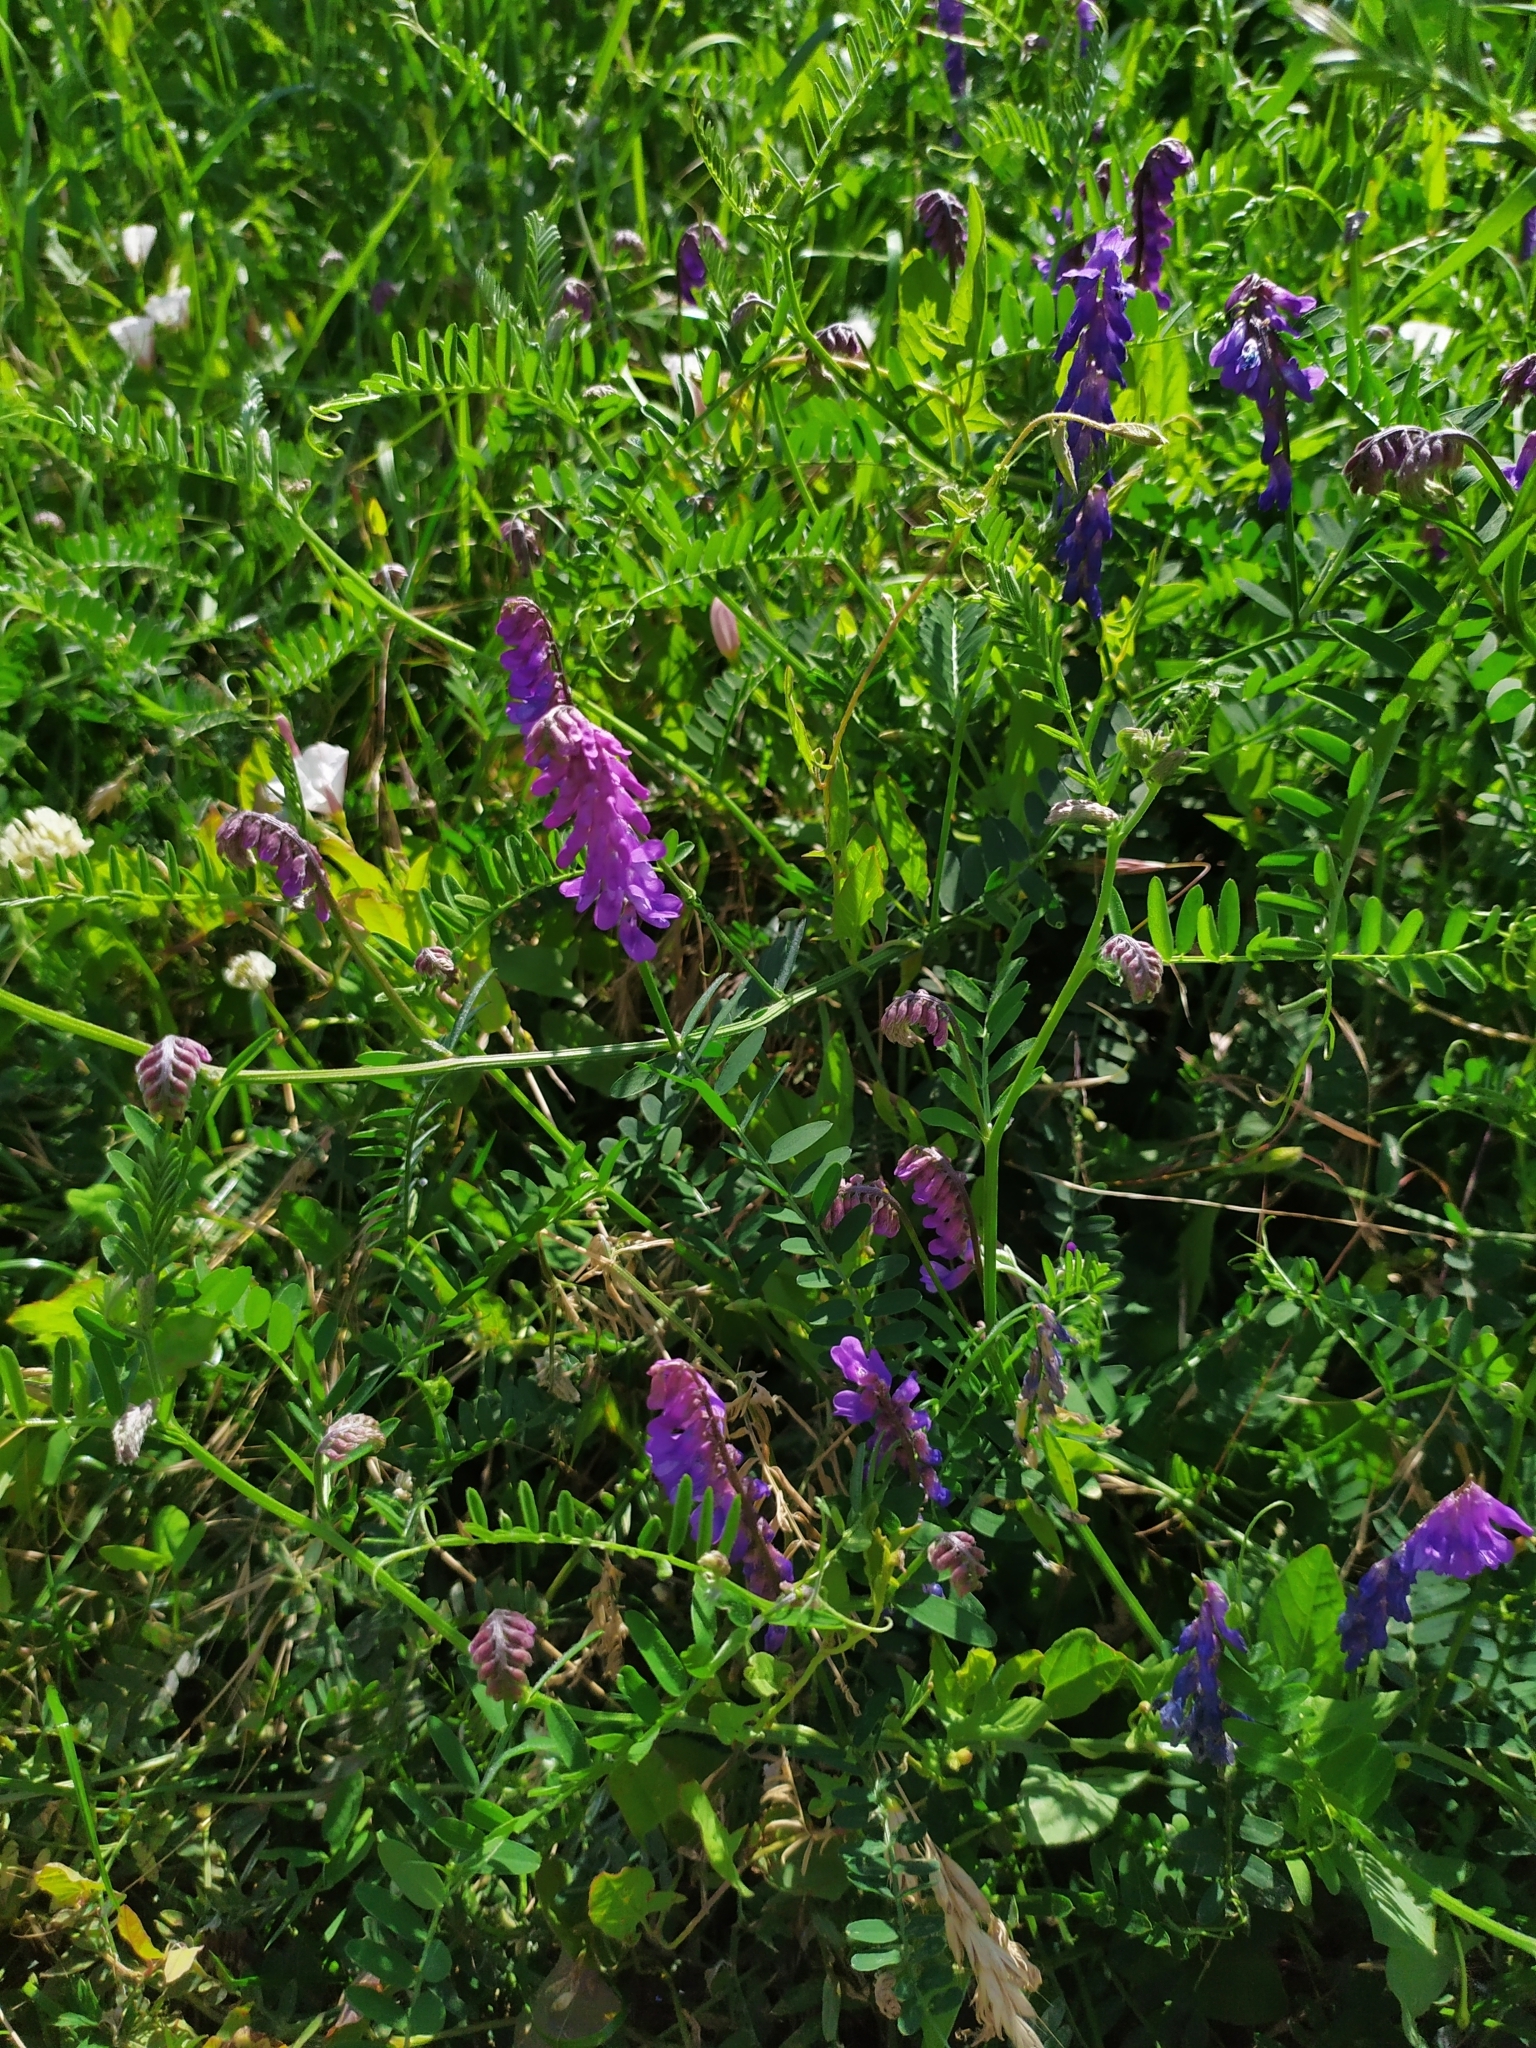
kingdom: Plantae
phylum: Tracheophyta
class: Magnoliopsida
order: Fabales
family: Fabaceae
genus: Vicia
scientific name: Vicia cracca
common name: Bird vetch
